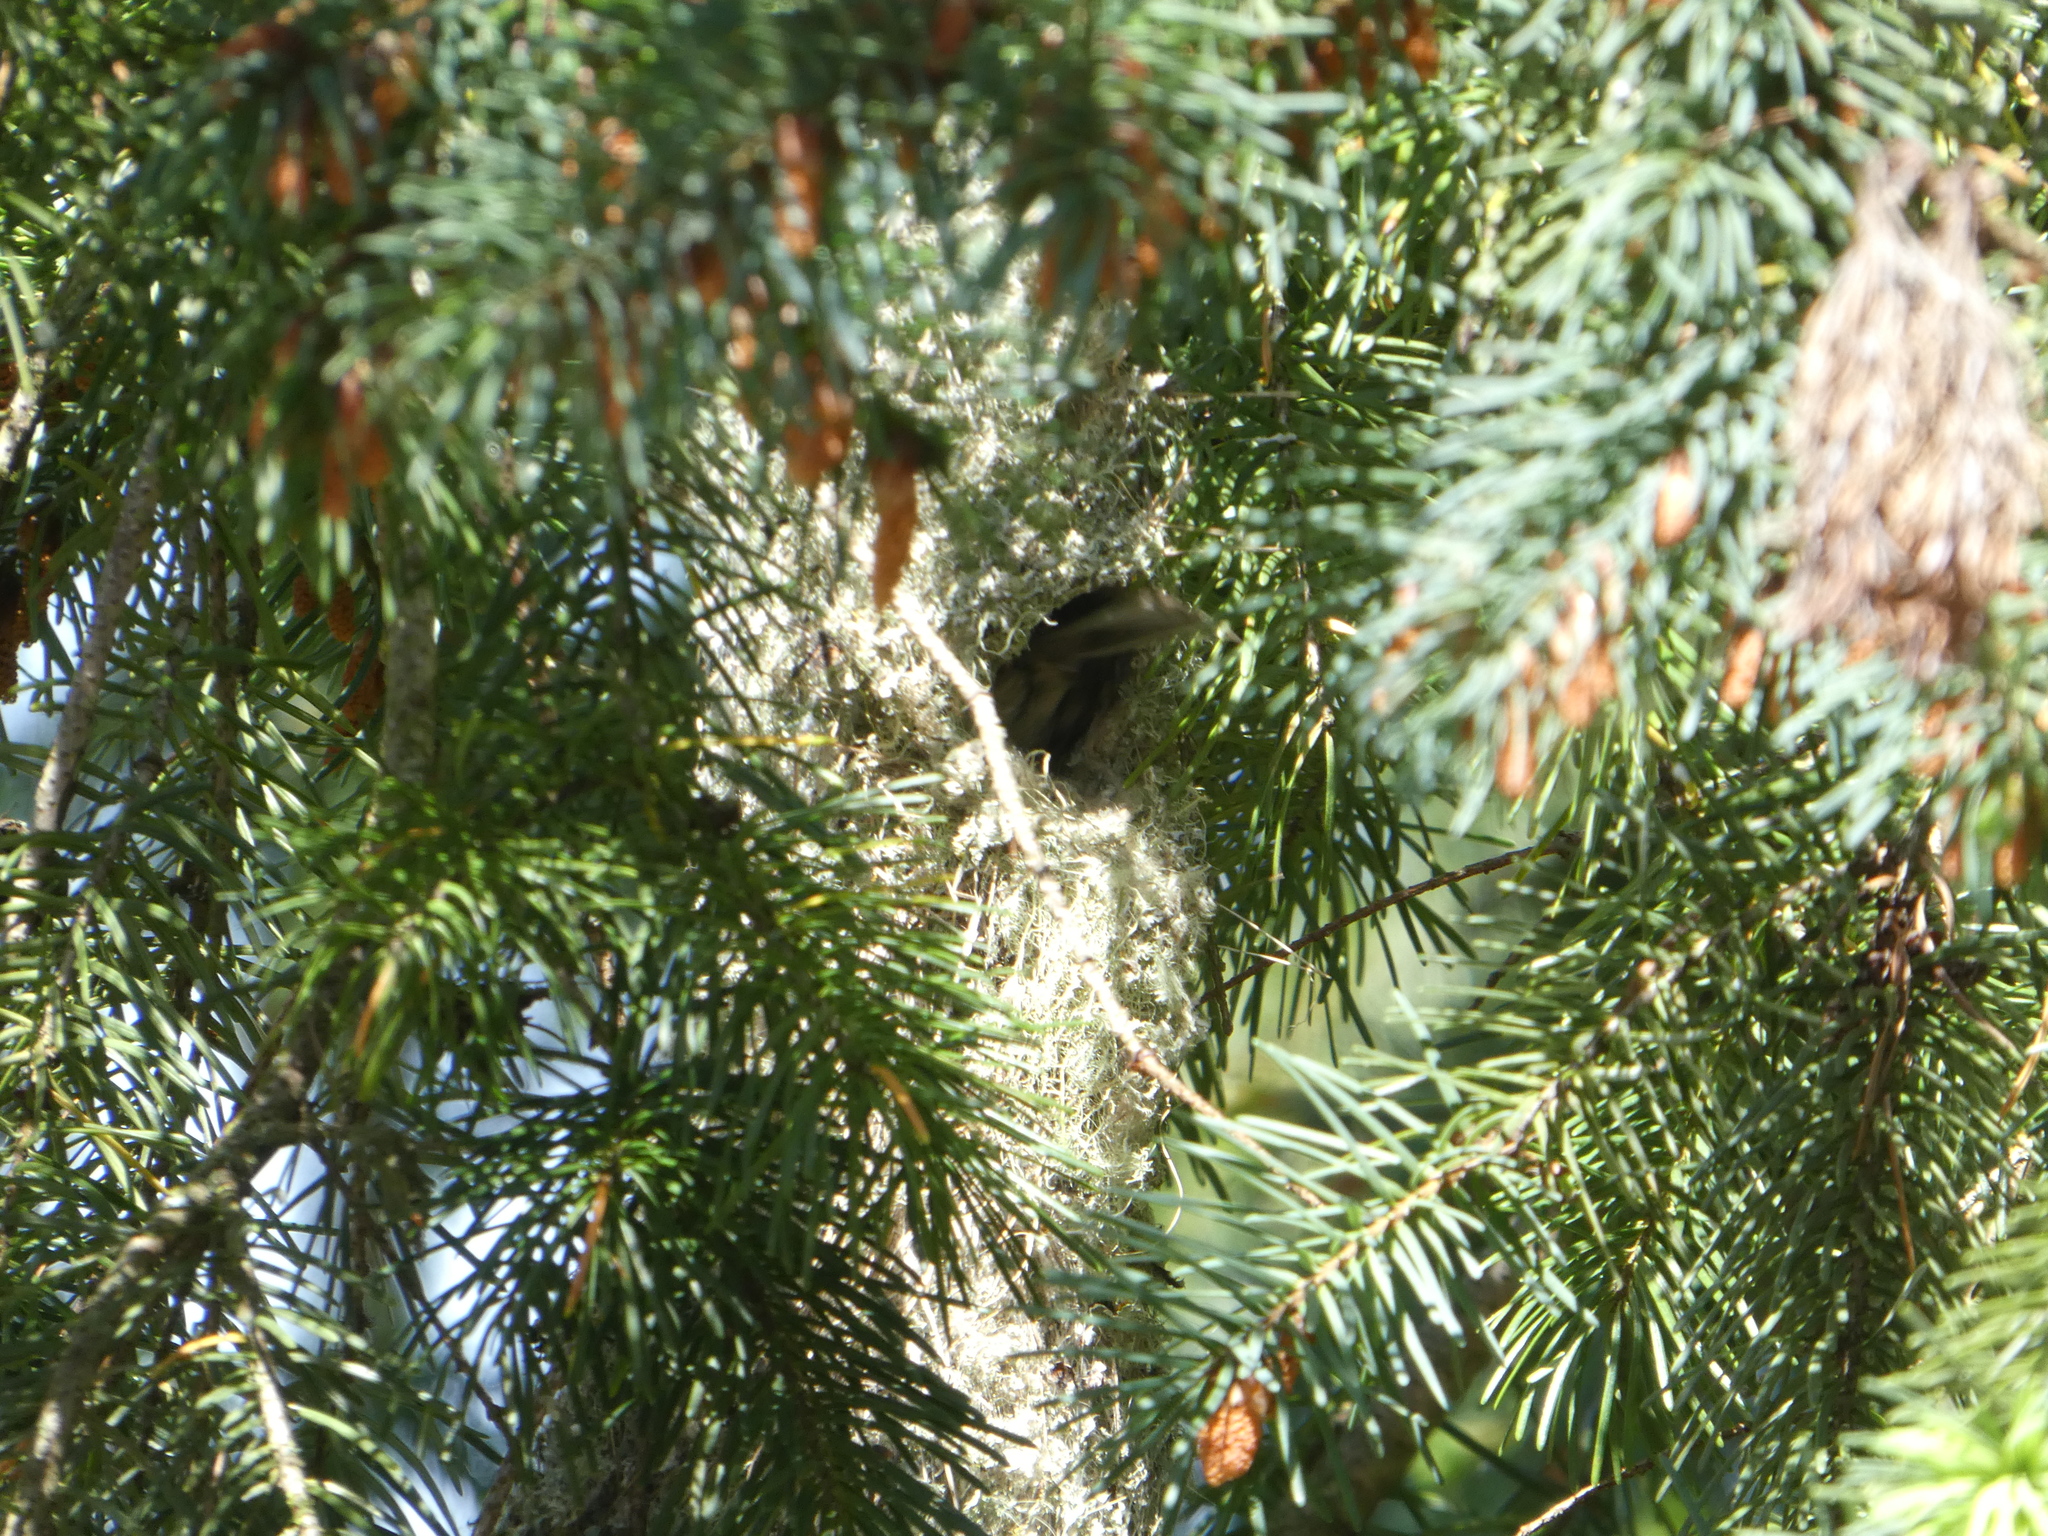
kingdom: Animalia
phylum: Chordata
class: Aves
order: Passeriformes
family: Aegithalidae
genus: Psaltriparus
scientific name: Psaltriparus minimus
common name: American bushtit
